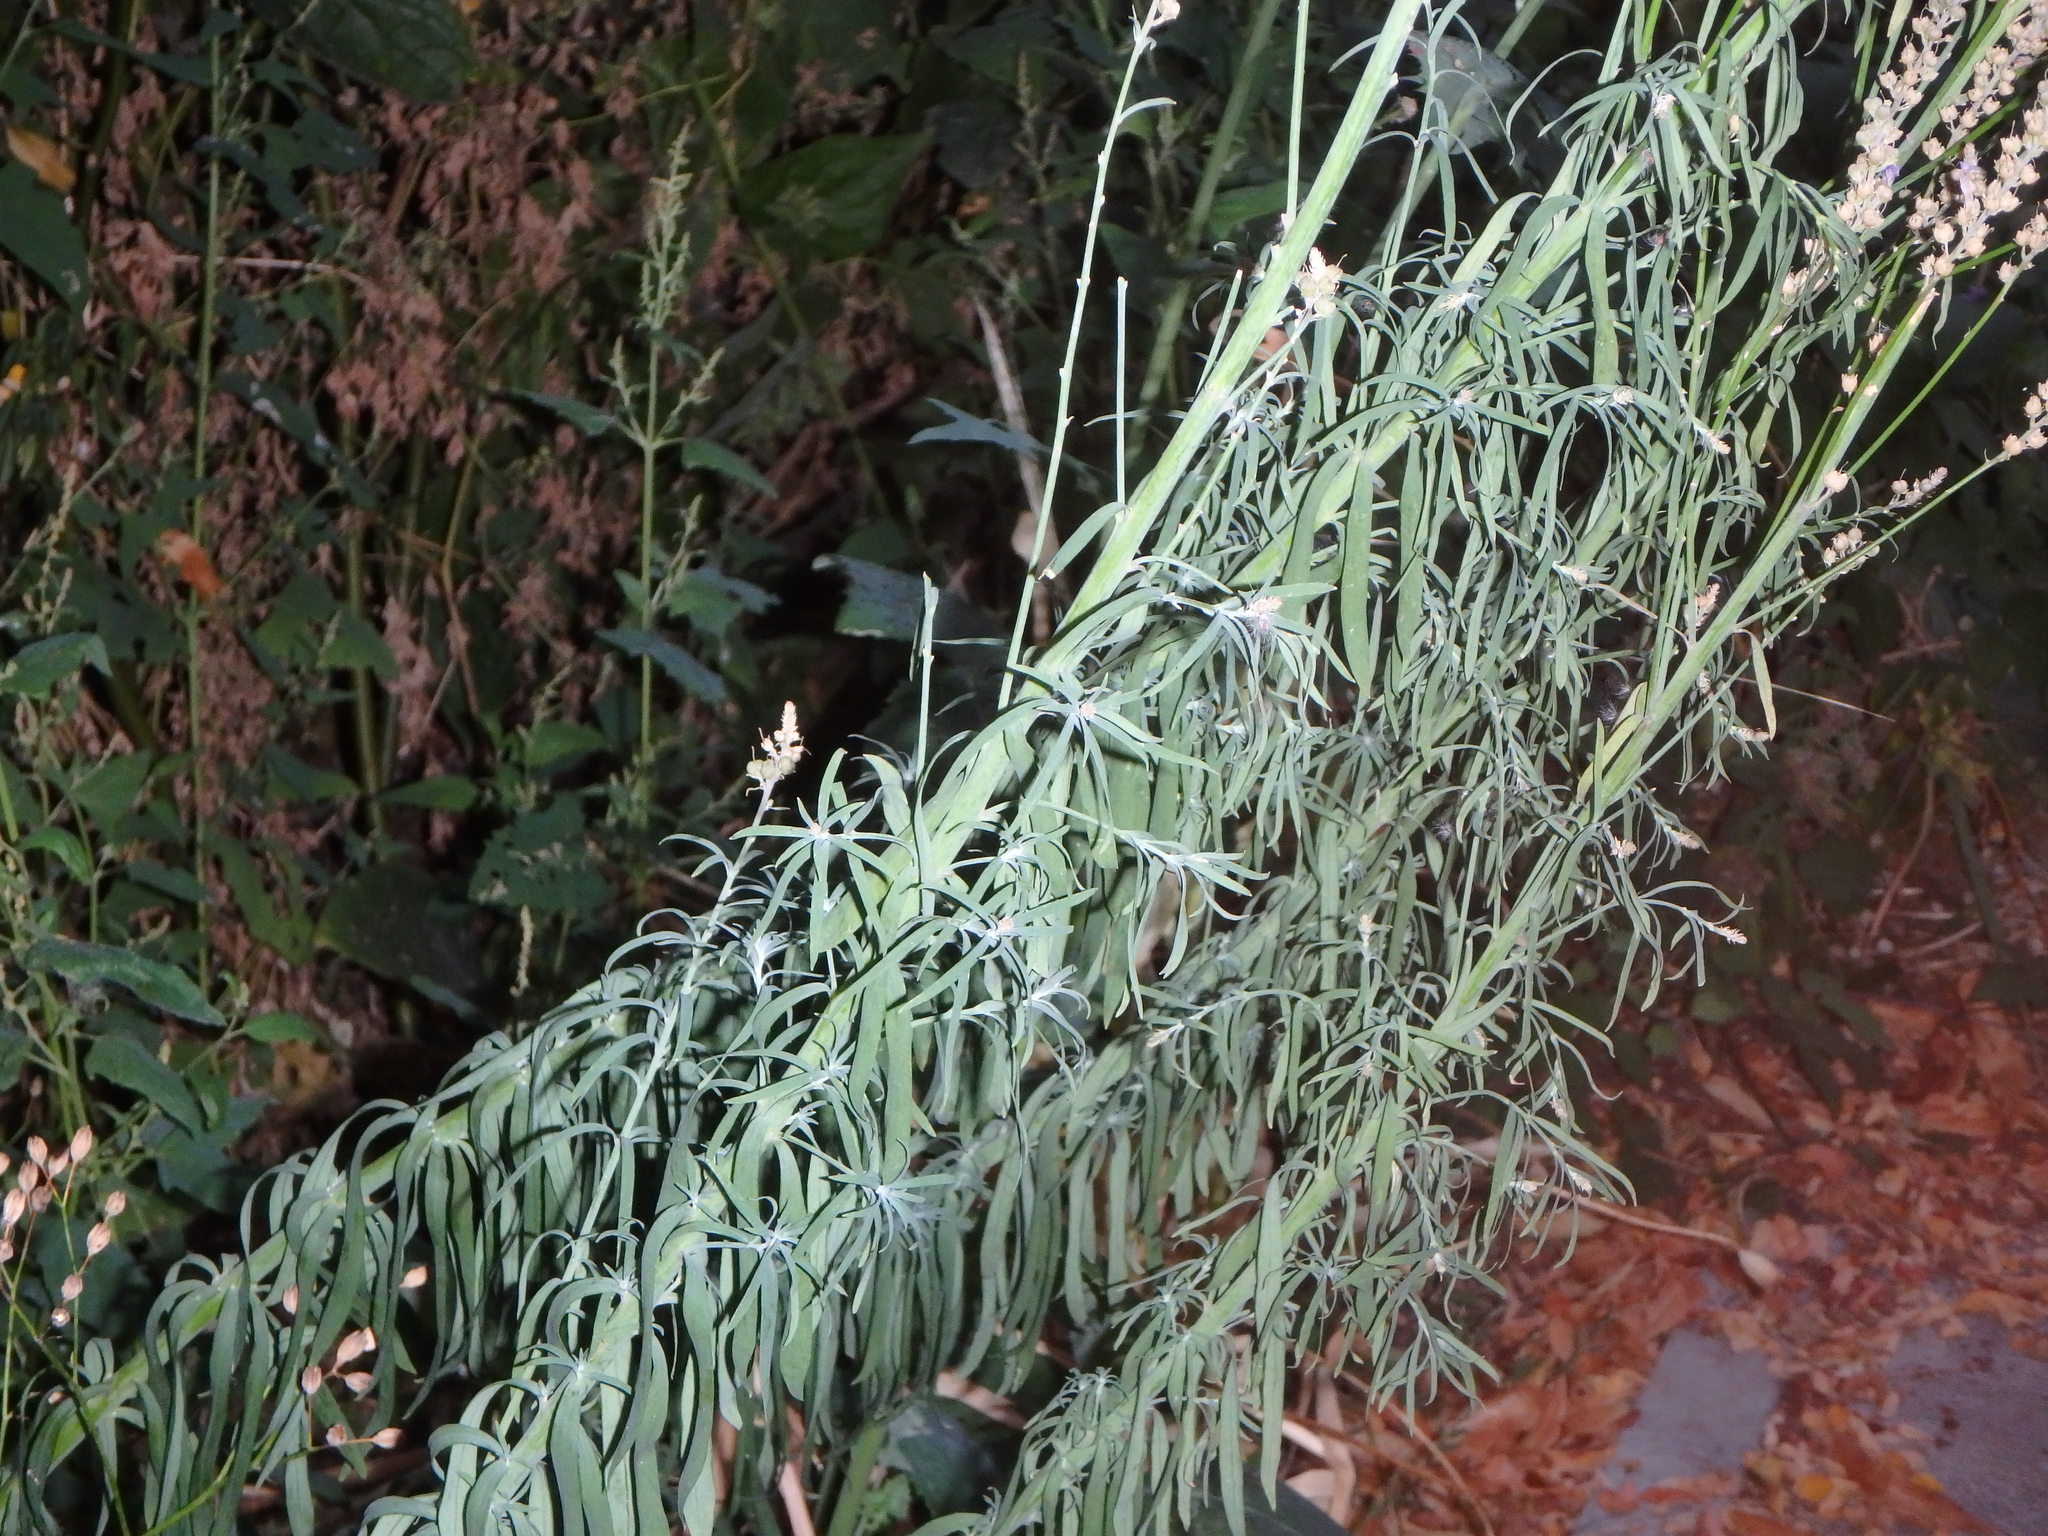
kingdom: Plantae
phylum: Tracheophyta
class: Magnoliopsida
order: Lamiales
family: Plantaginaceae
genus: Linaria
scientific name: Linaria purpurea
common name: Purple toadflax
